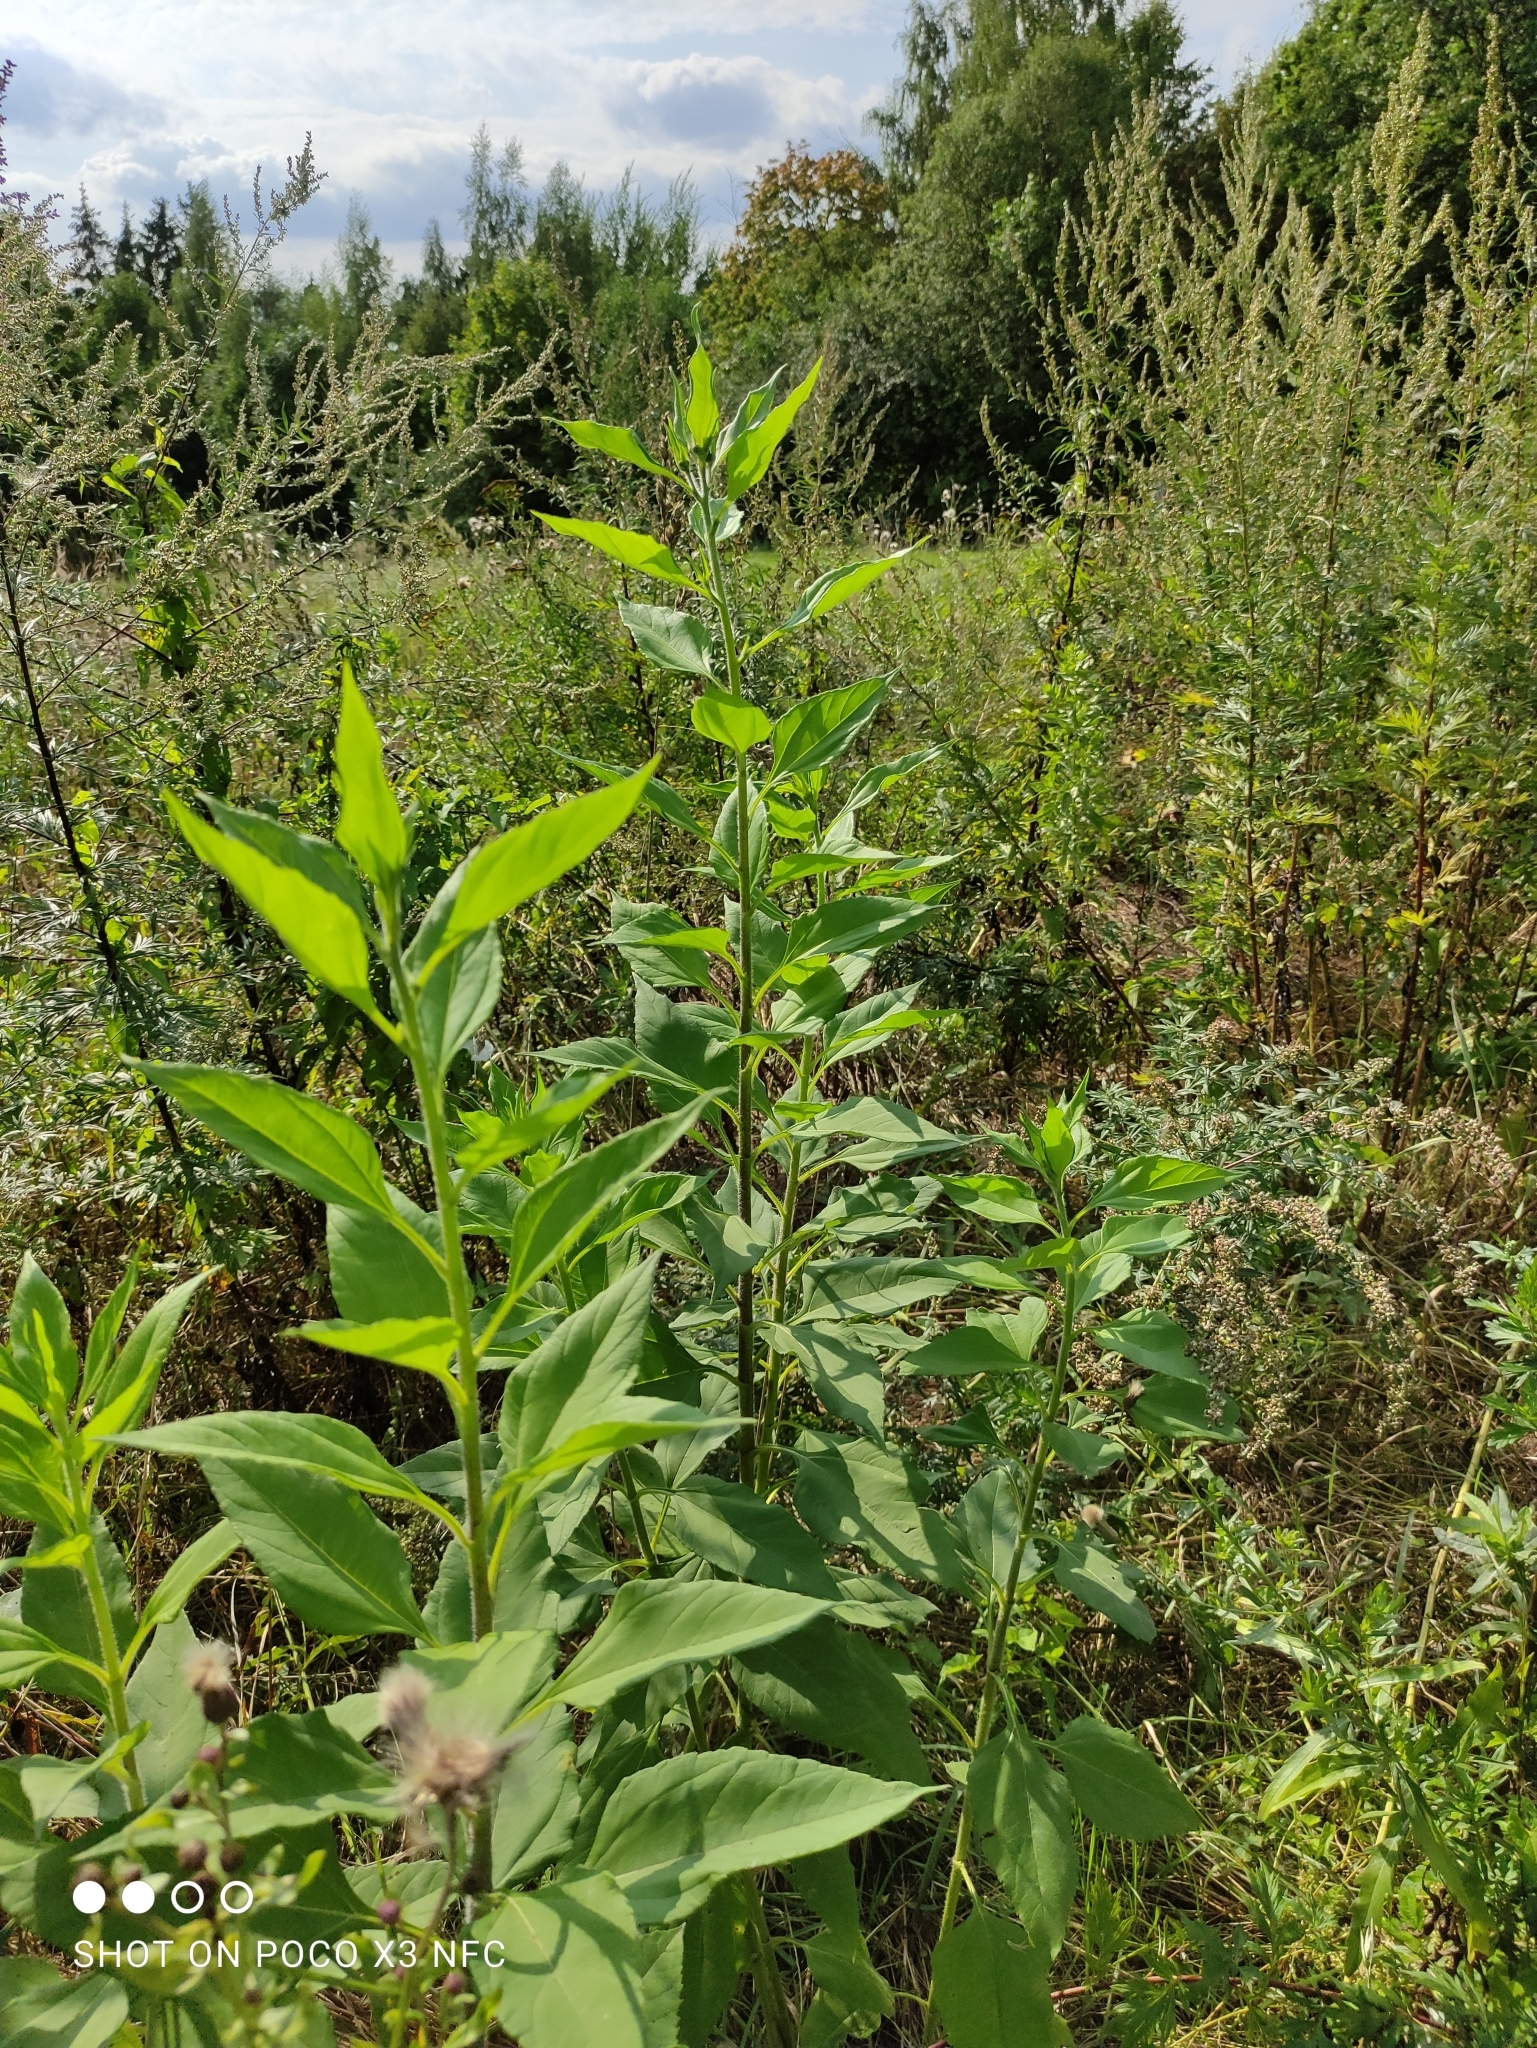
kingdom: Plantae
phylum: Tracheophyta
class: Magnoliopsida
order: Asterales
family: Asteraceae
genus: Helianthus
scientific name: Helianthus tuberosus
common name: Jerusalem artichoke
